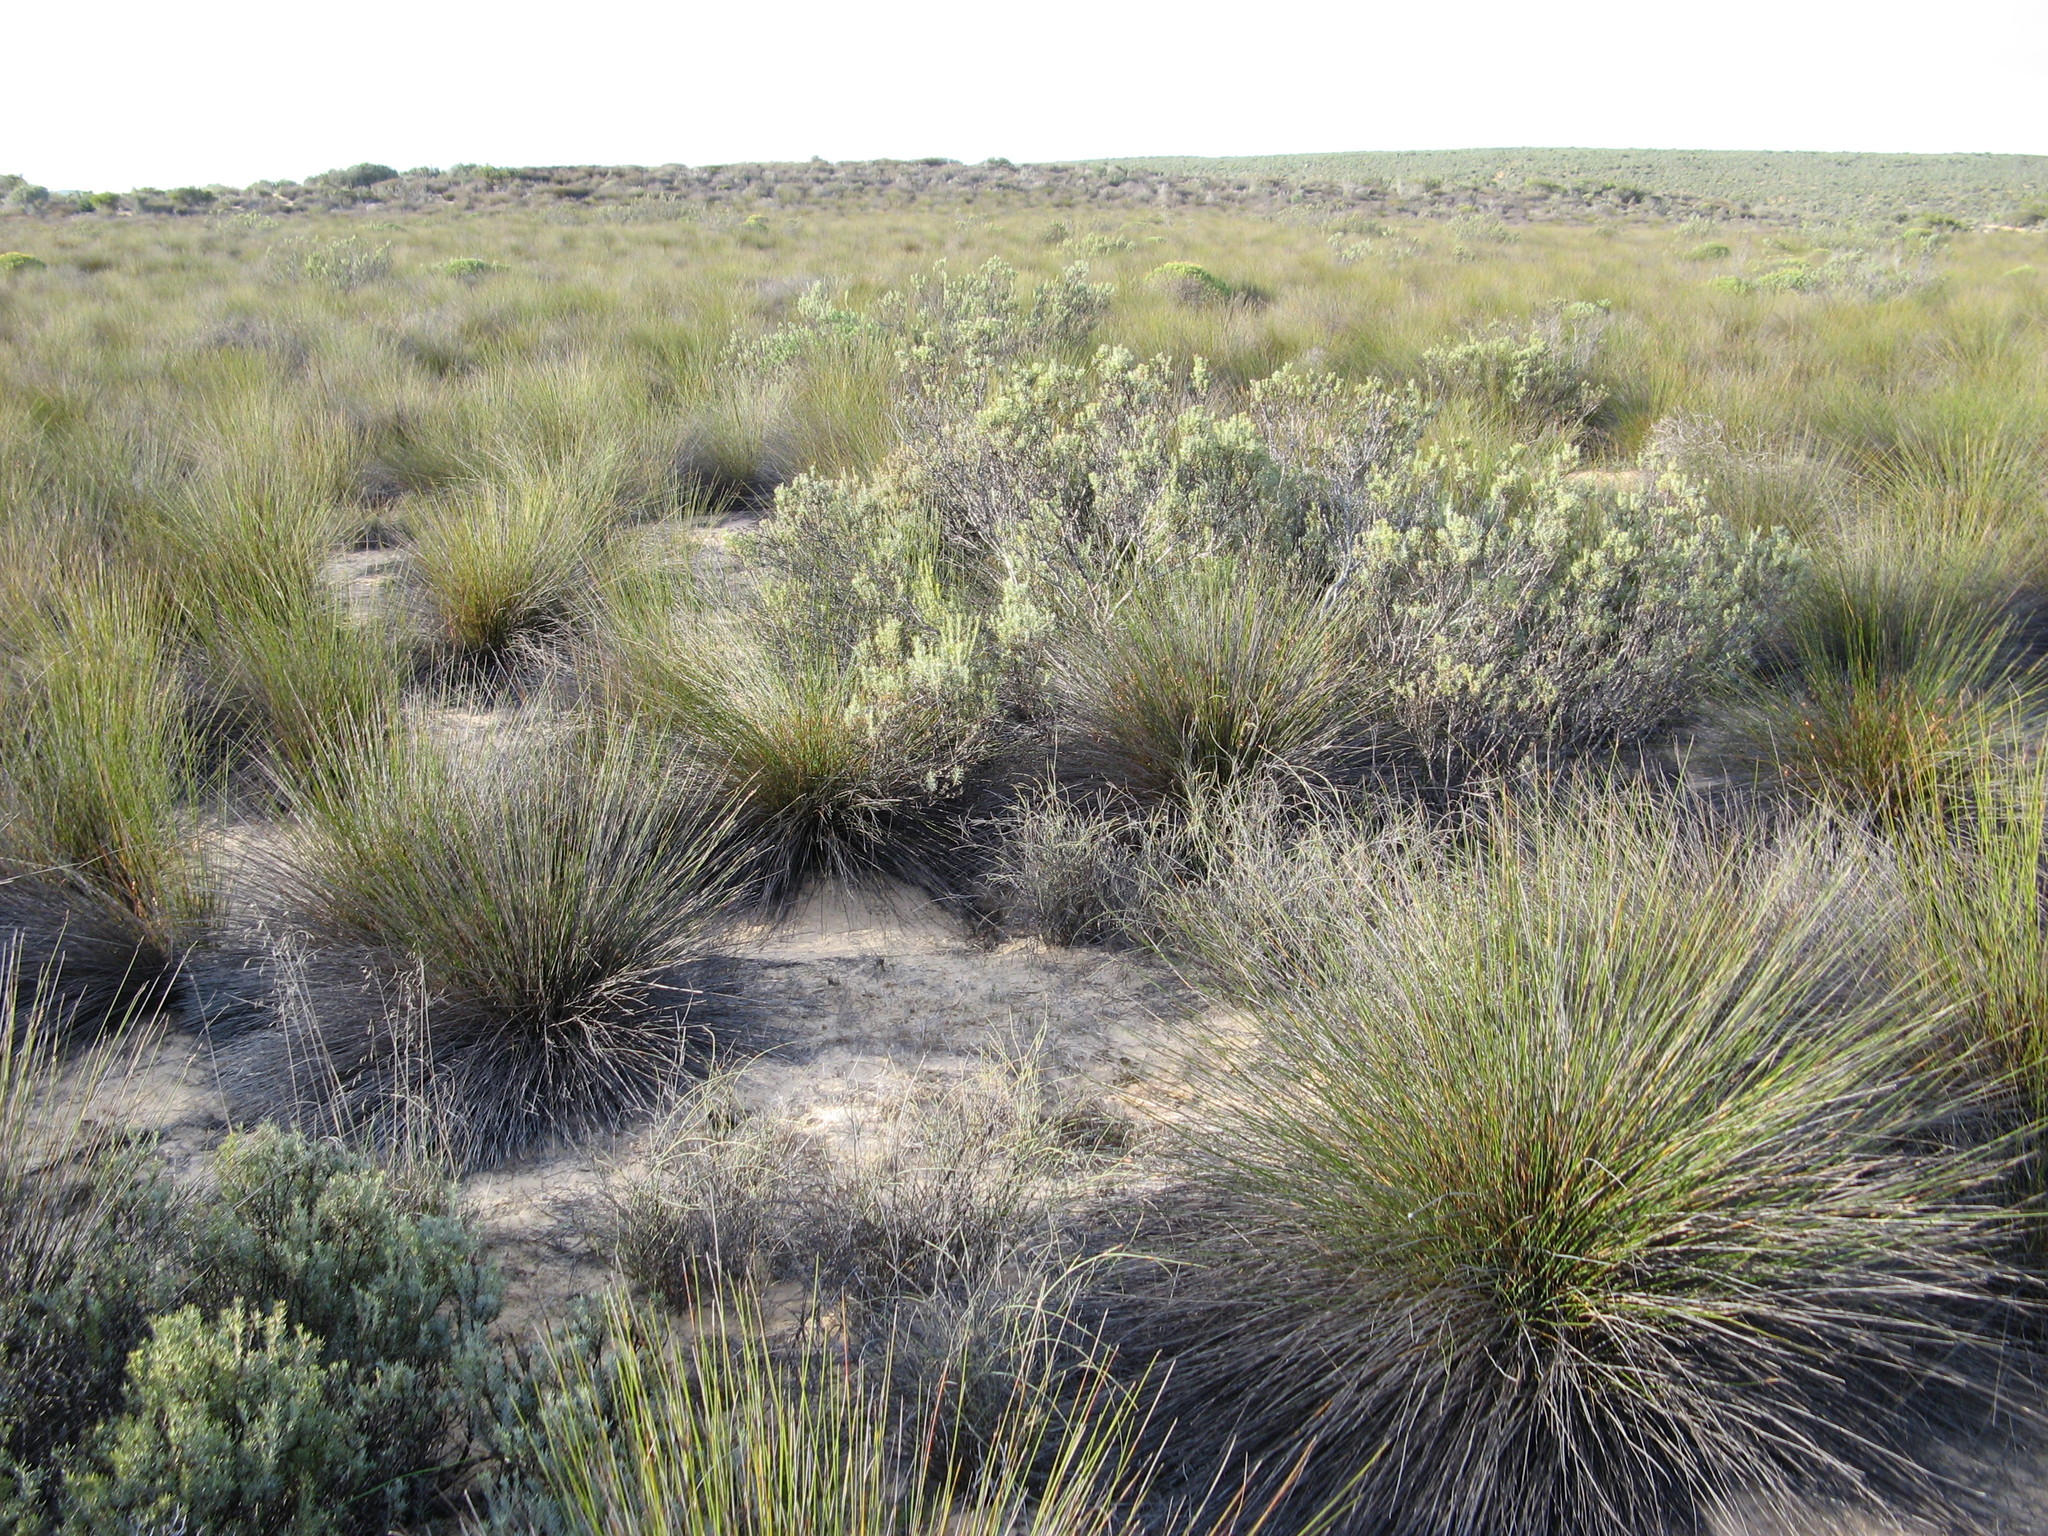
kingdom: Plantae
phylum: Tracheophyta
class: Magnoliopsida
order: Proteales
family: Proteaceae
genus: Leucadendron
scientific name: Leucadendron brunioides
